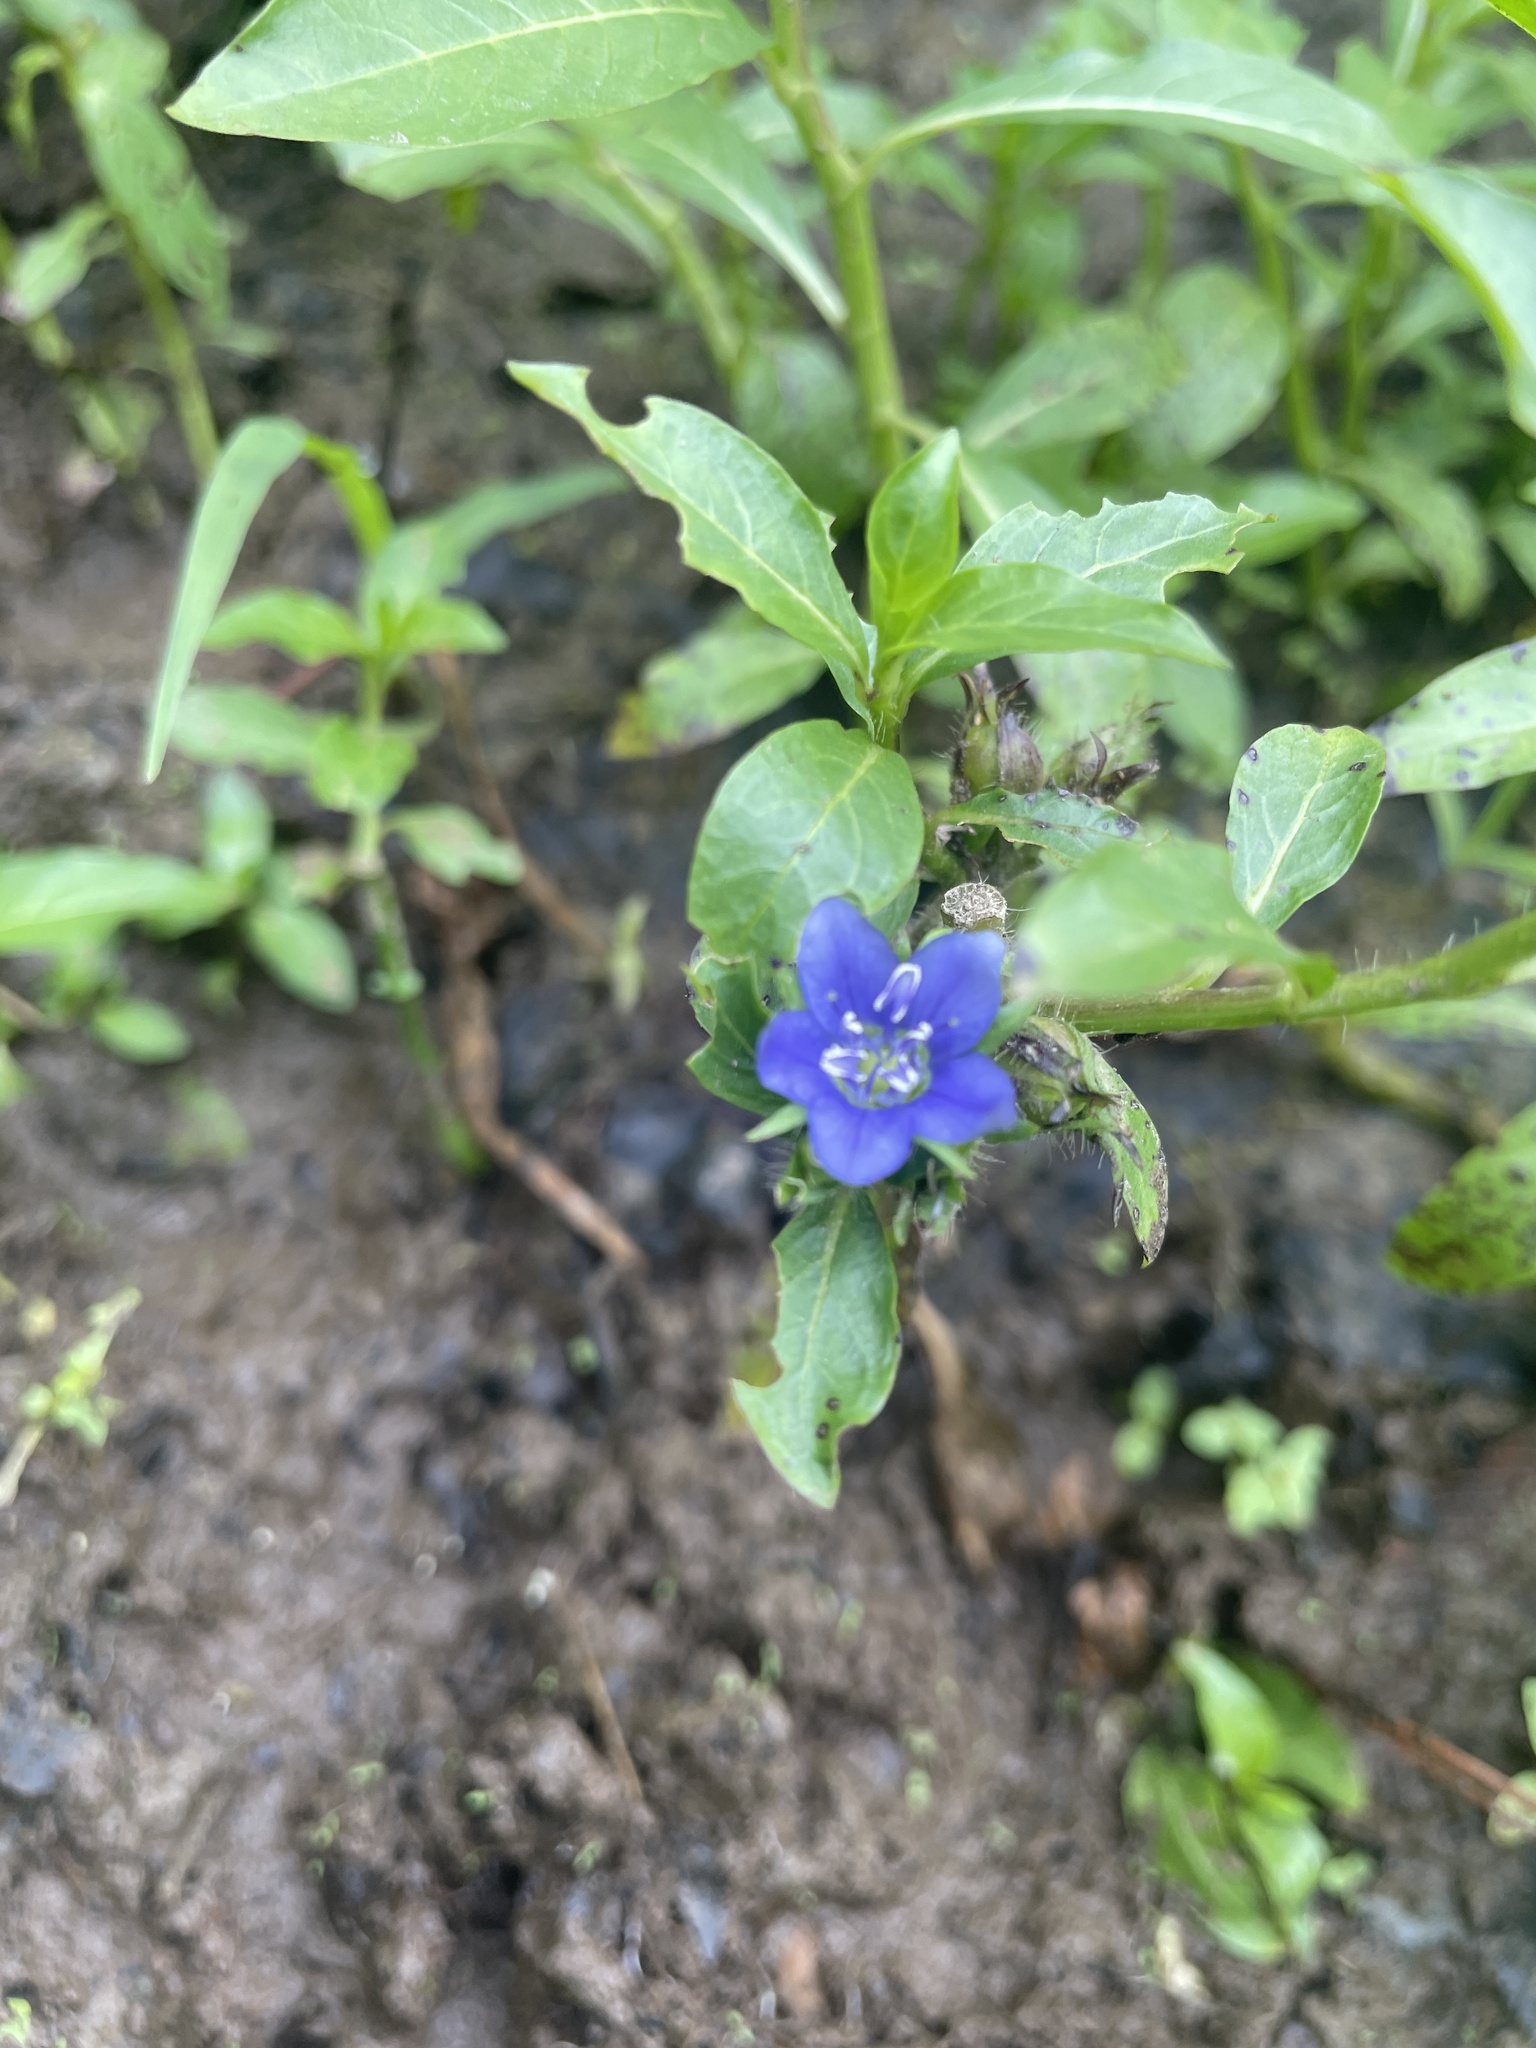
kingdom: Plantae
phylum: Tracheophyta
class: Magnoliopsida
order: Solanales
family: Hydroleaceae
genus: Hydrolea
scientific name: Hydrolea quadrivalvis
